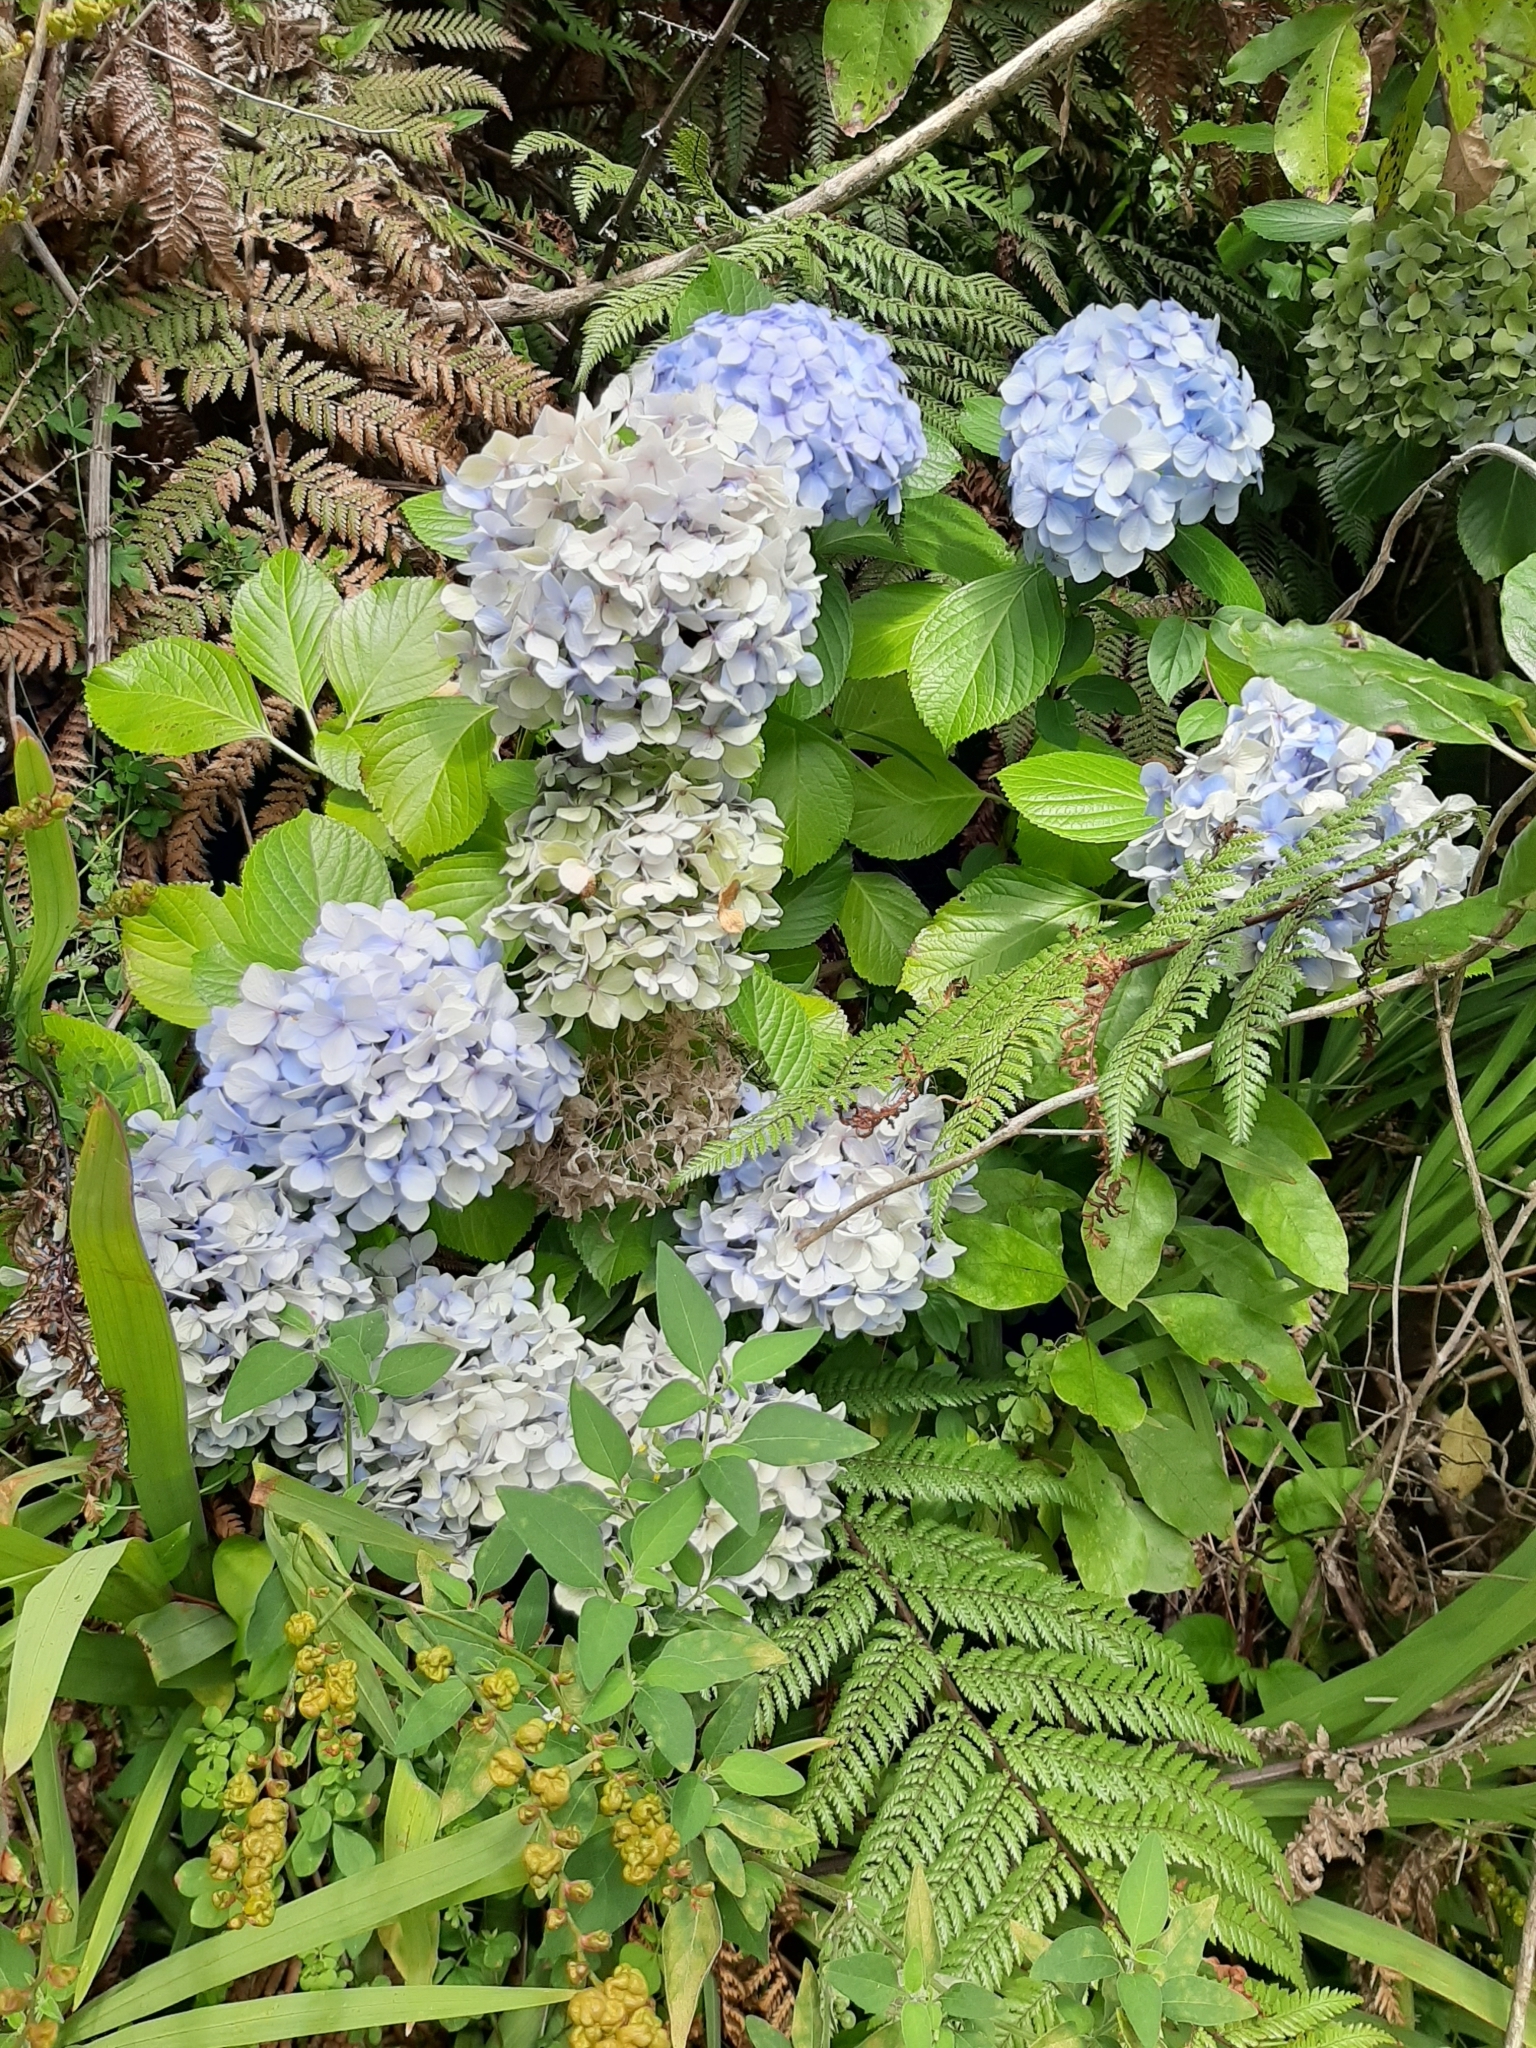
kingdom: Plantae
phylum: Tracheophyta
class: Magnoliopsida
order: Cornales
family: Hydrangeaceae
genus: Hydrangea
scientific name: Hydrangea macrophylla
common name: Hydrangea
